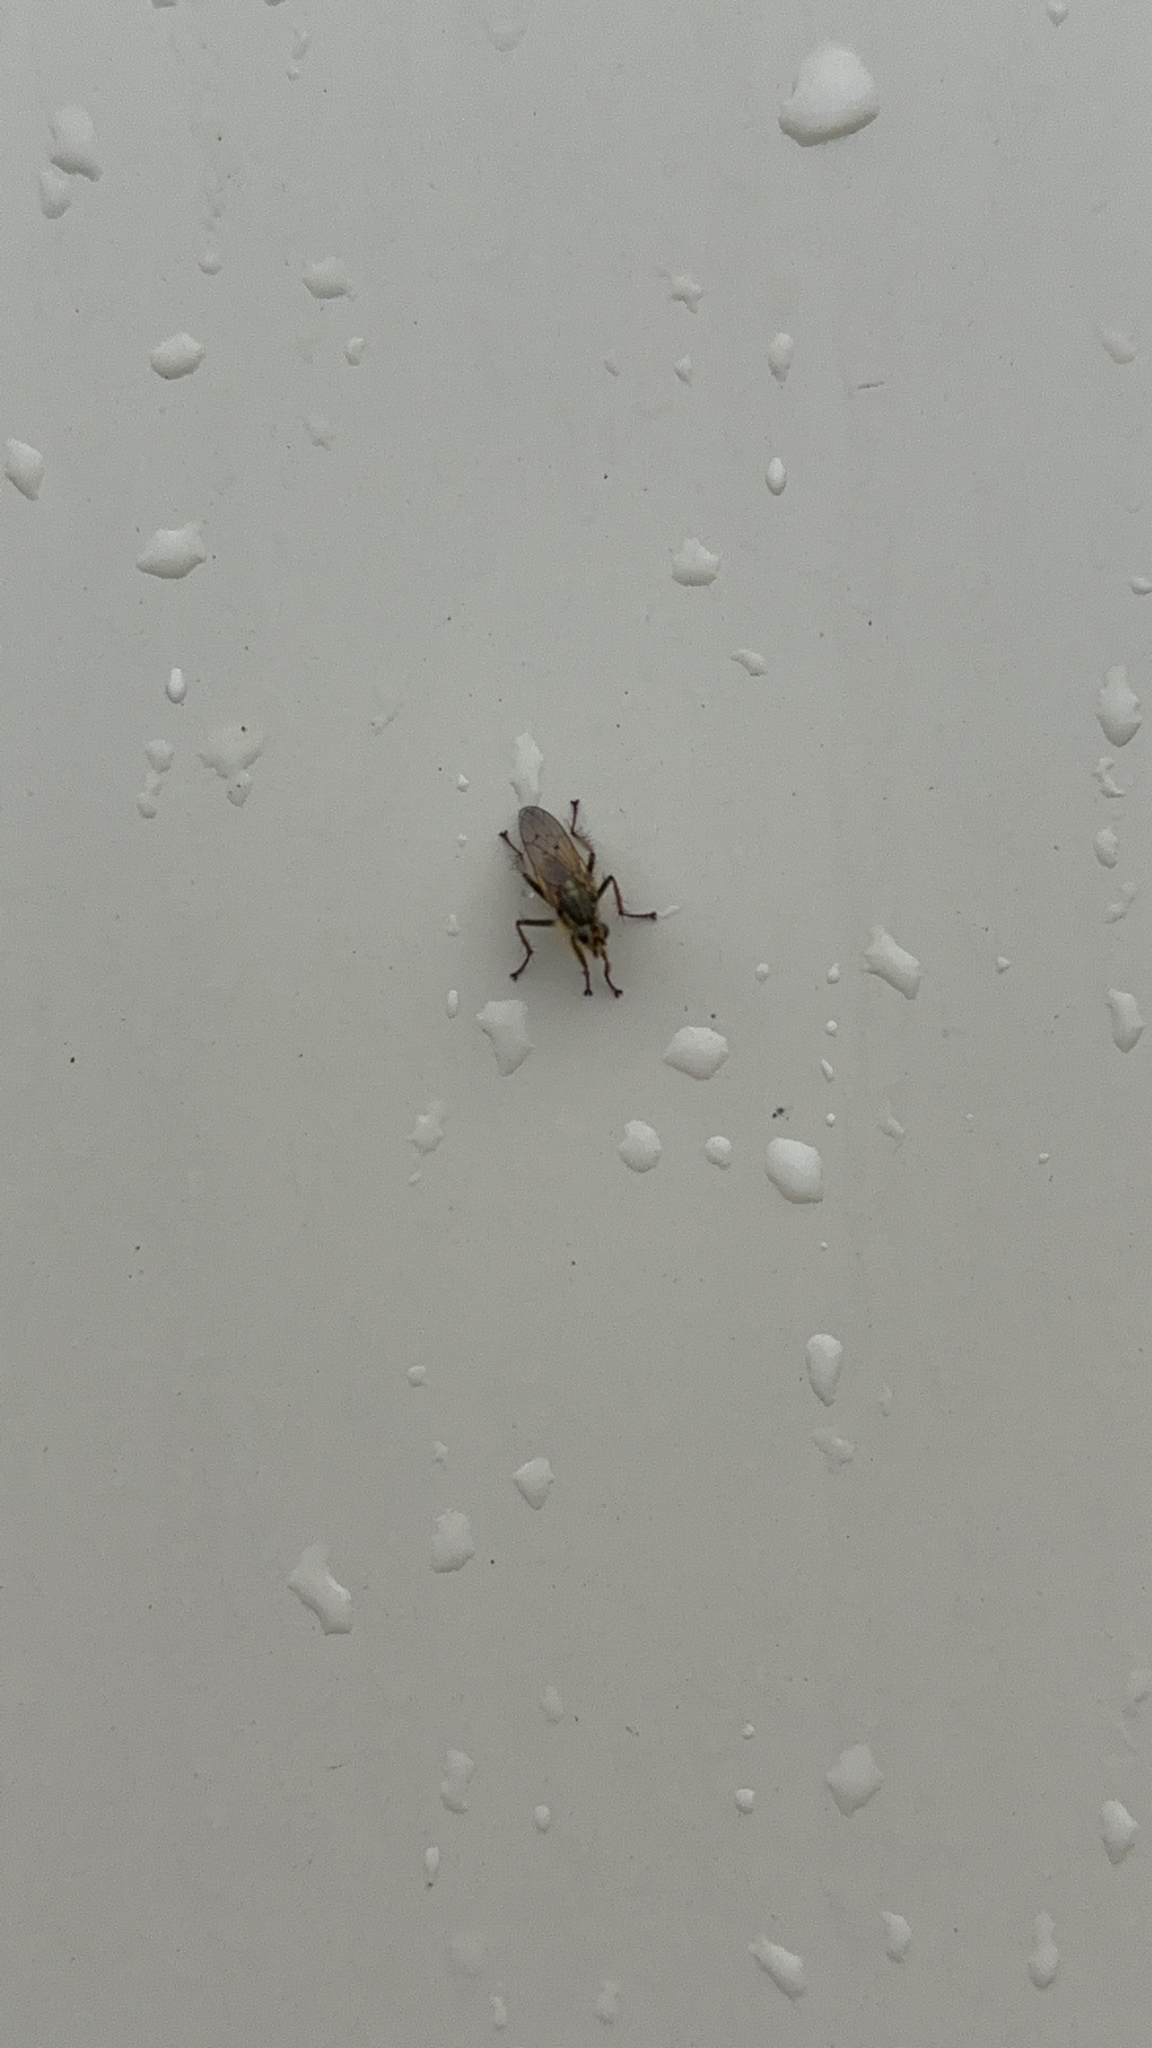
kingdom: Animalia
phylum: Arthropoda
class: Insecta
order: Diptera
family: Scathophagidae
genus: Scathophaga
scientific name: Scathophaga stercoraria
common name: Yellow dung fly
